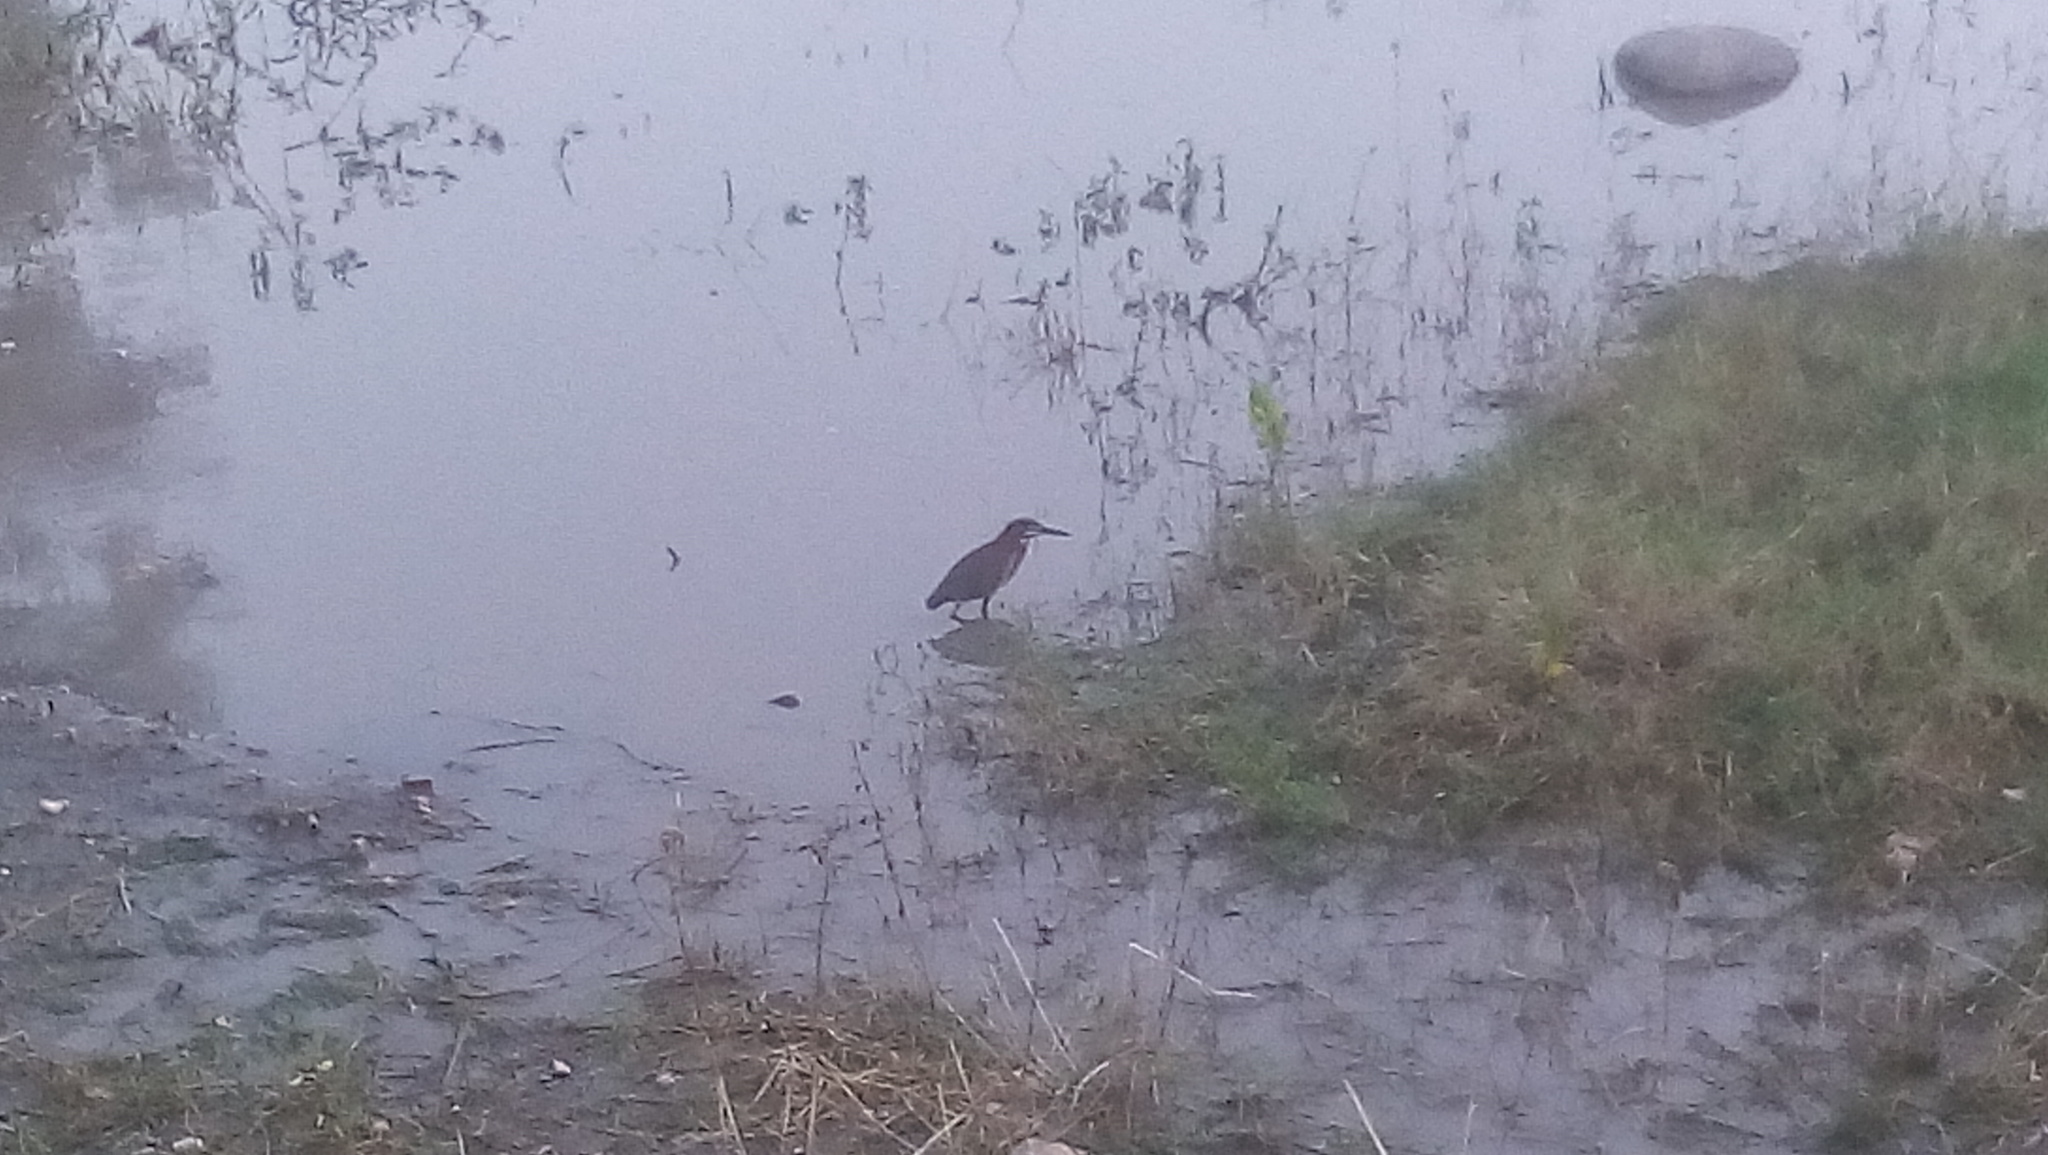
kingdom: Animalia
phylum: Chordata
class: Aves
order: Pelecaniformes
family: Ardeidae
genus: Butorides
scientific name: Butorides virescens
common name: Green heron
